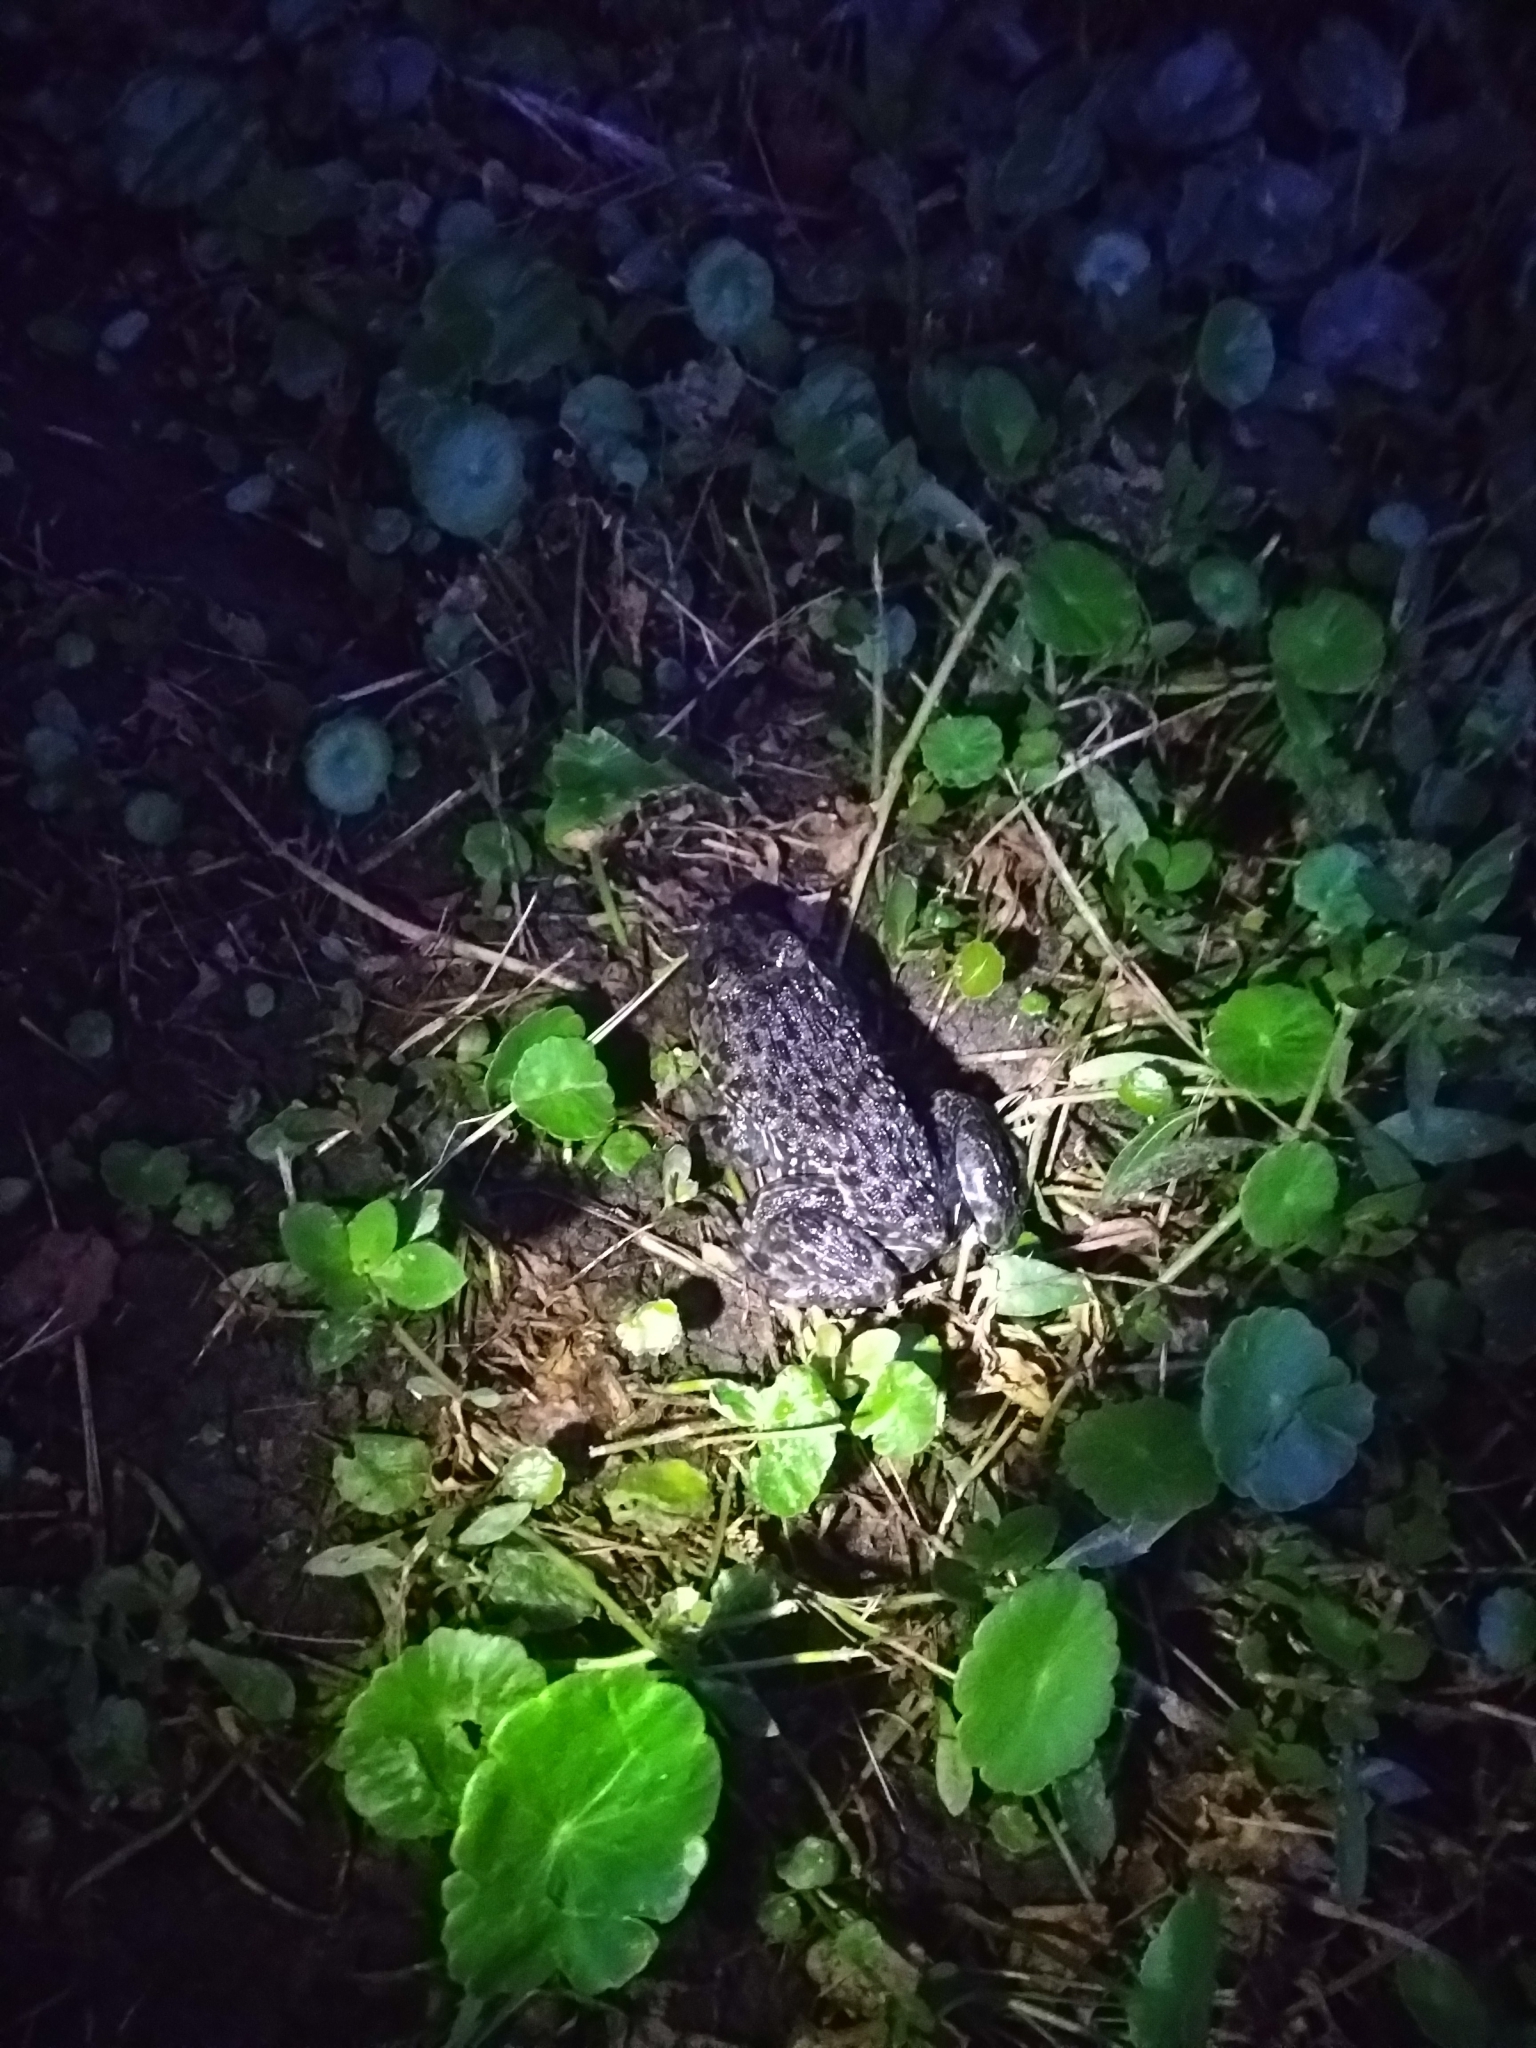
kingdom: Animalia
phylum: Chordata
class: Amphibia
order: Anura
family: Dicroglossidae
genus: Hoplobatrachus
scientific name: Hoplobatrachus rugulosus
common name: Chinese edible frog
